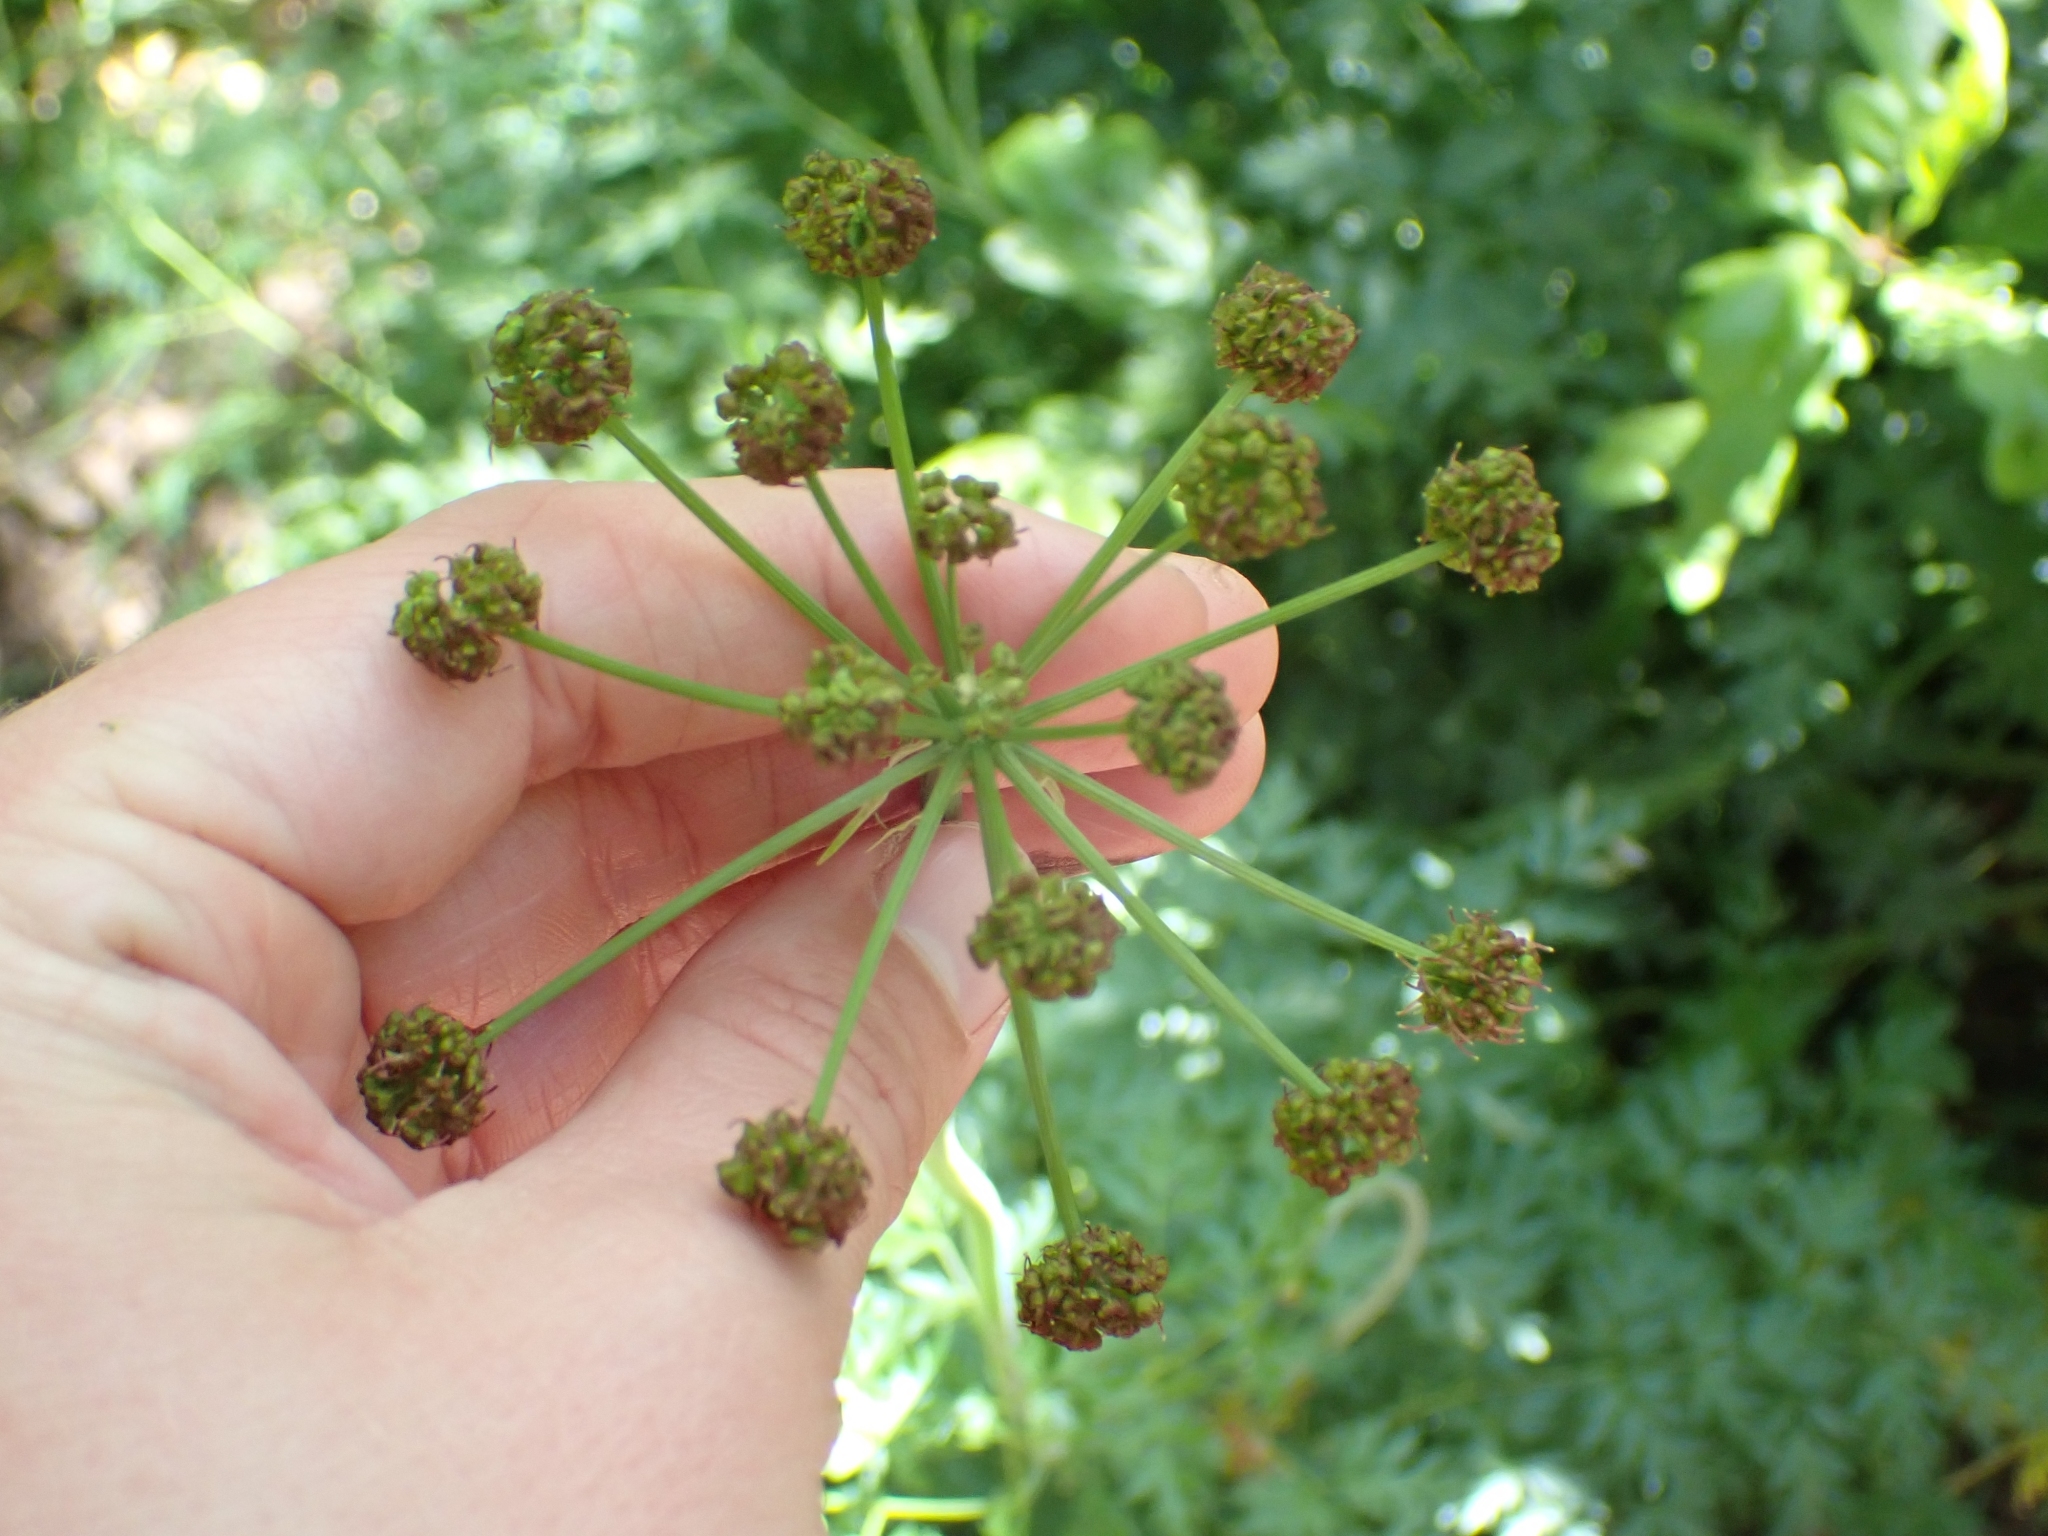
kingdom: Plantae
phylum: Tracheophyta
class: Magnoliopsida
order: Apiales
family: Apiaceae
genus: Lomatium
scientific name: Lomatium dissectum
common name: Lomatium
